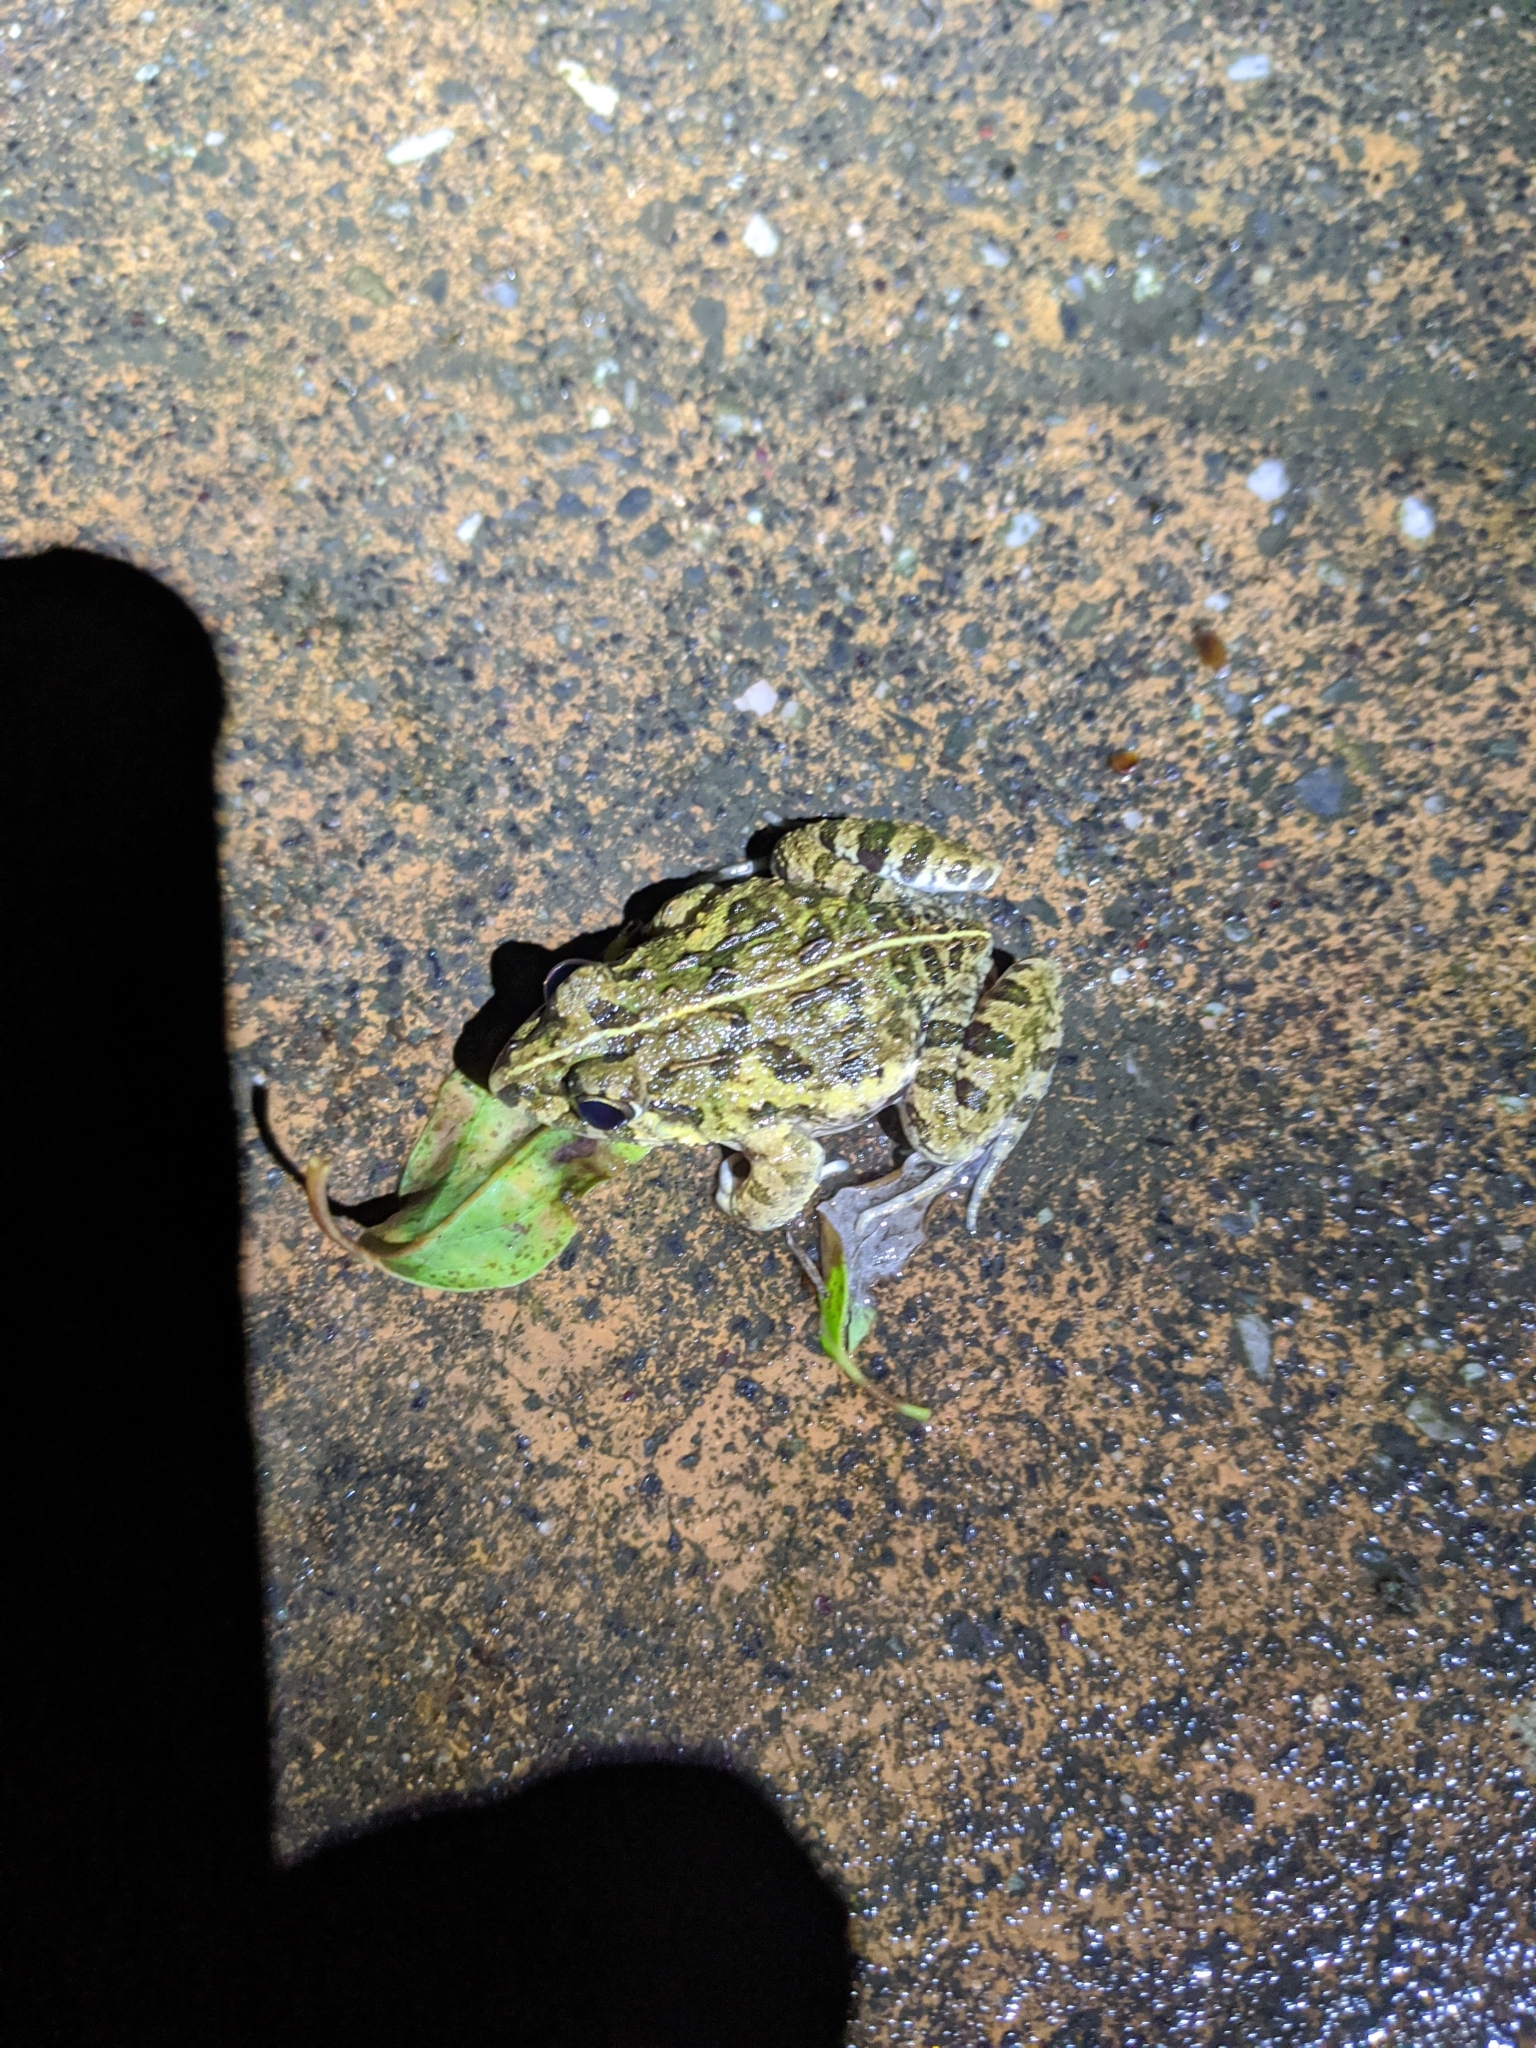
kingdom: Animalia
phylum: Chordata
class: Amphibia
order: Anura
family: Dicroglossidae
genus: Fejervarya
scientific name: Fejervarya limnocharis
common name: Asian grass frog/common pond frog/field frog/grass frog/indian rice frog
